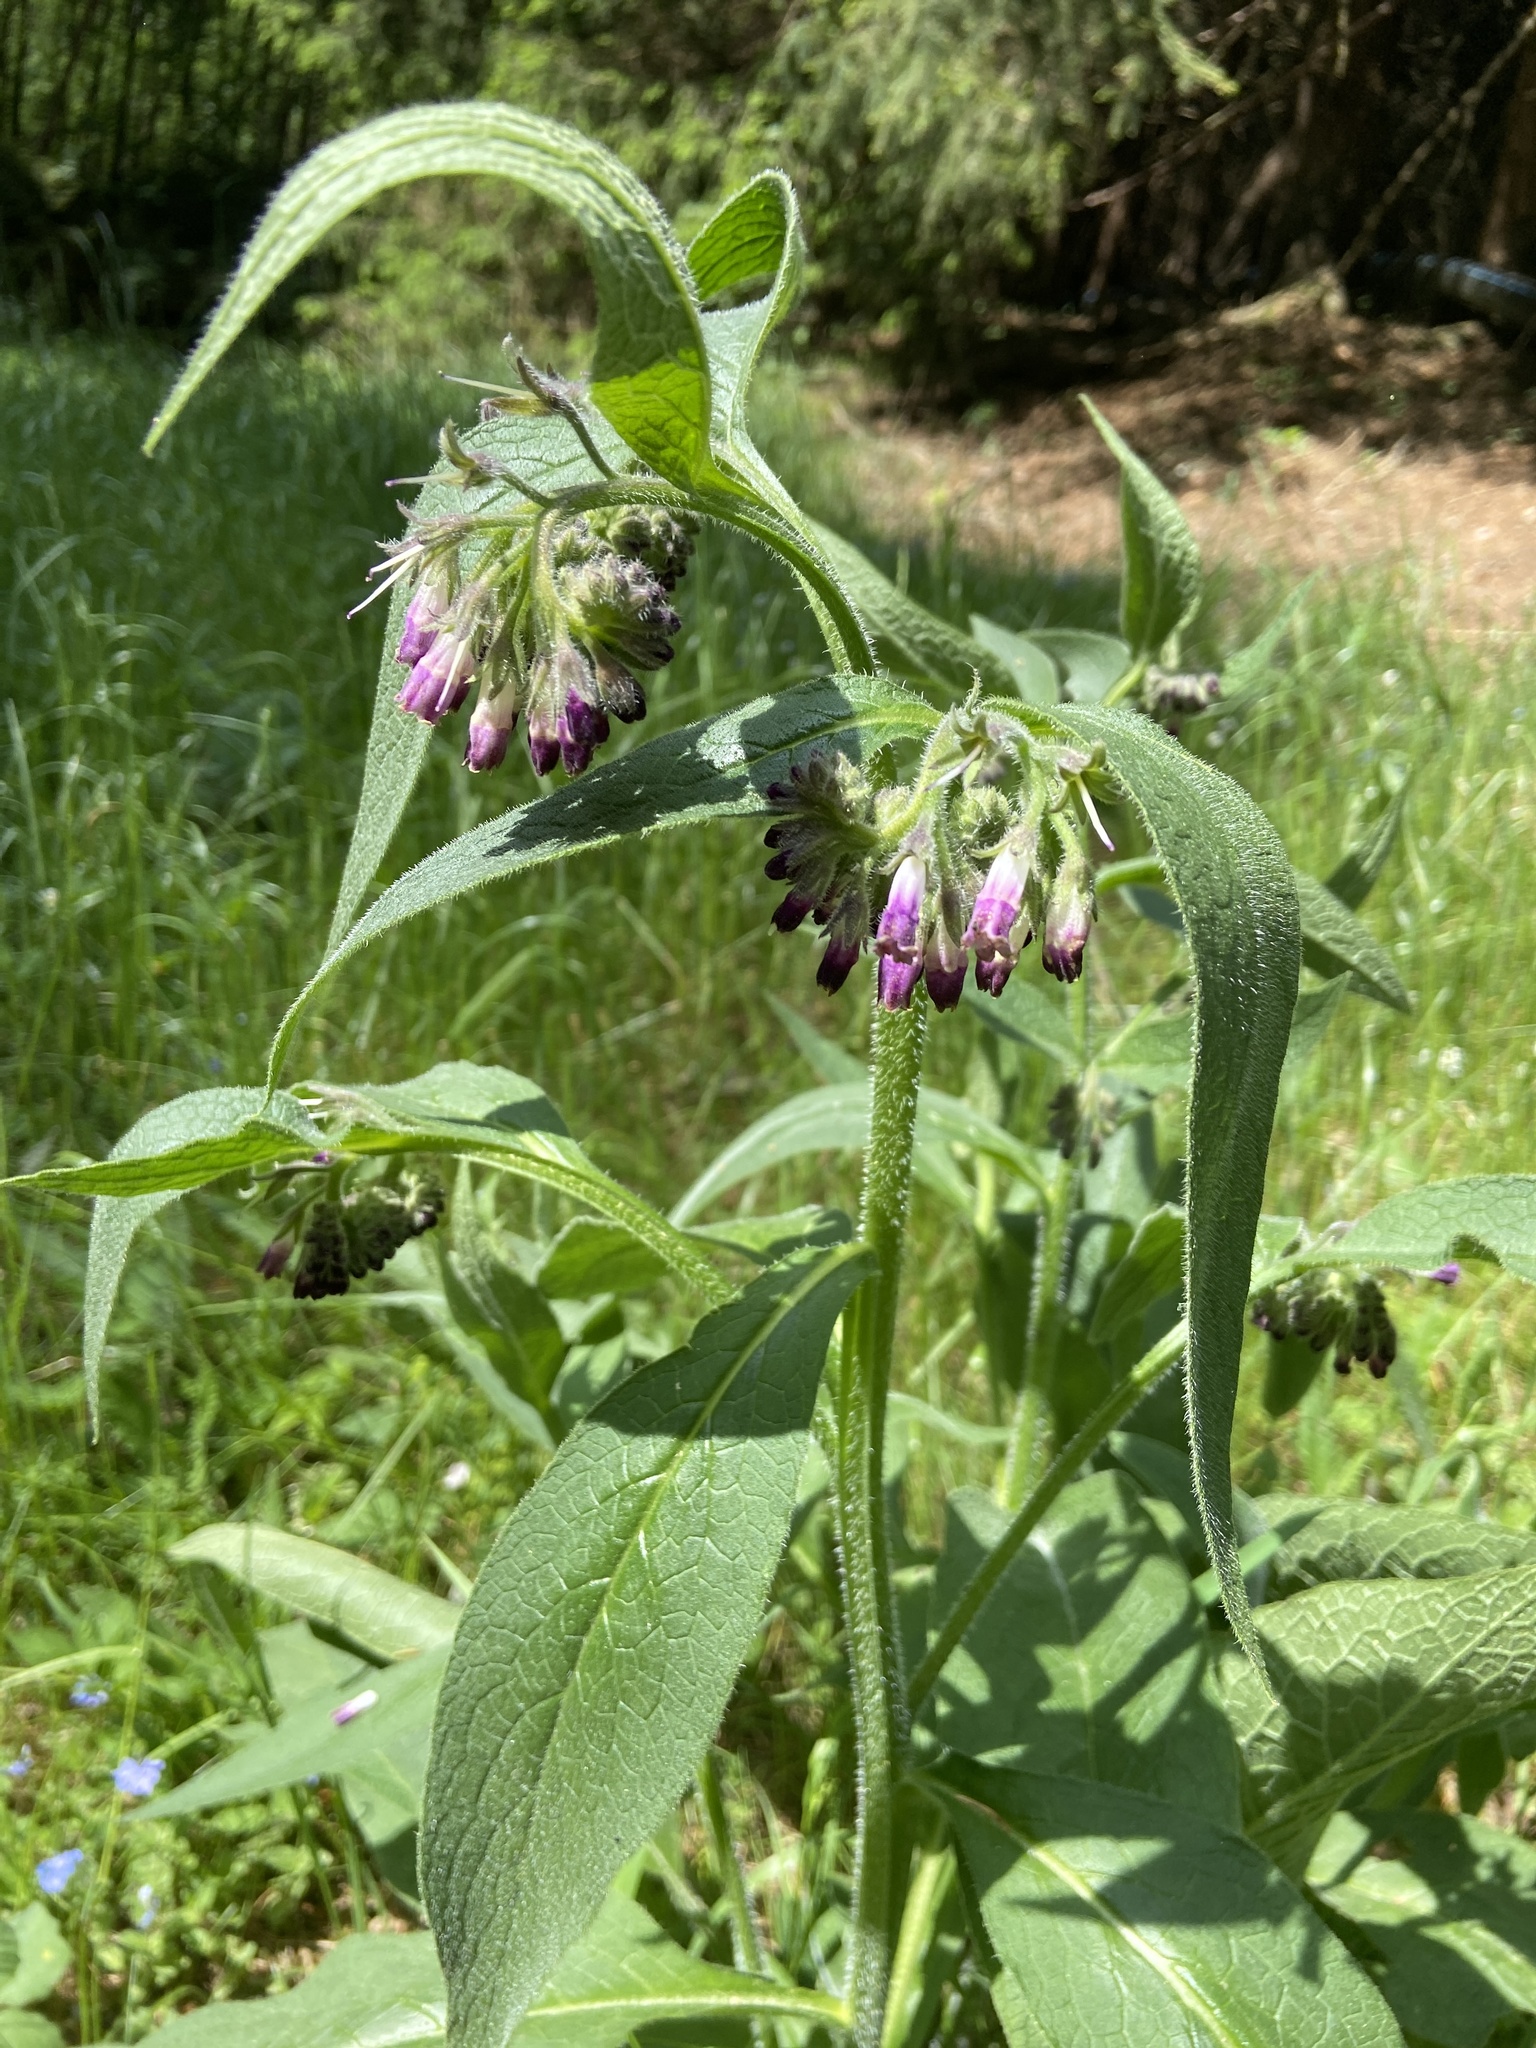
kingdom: Plantae
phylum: Tracheophyta
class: Magnoliopsida
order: Boraginales
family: Boraginaceae
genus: Symphytum
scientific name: Symphytum officinale
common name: Common comfrey
